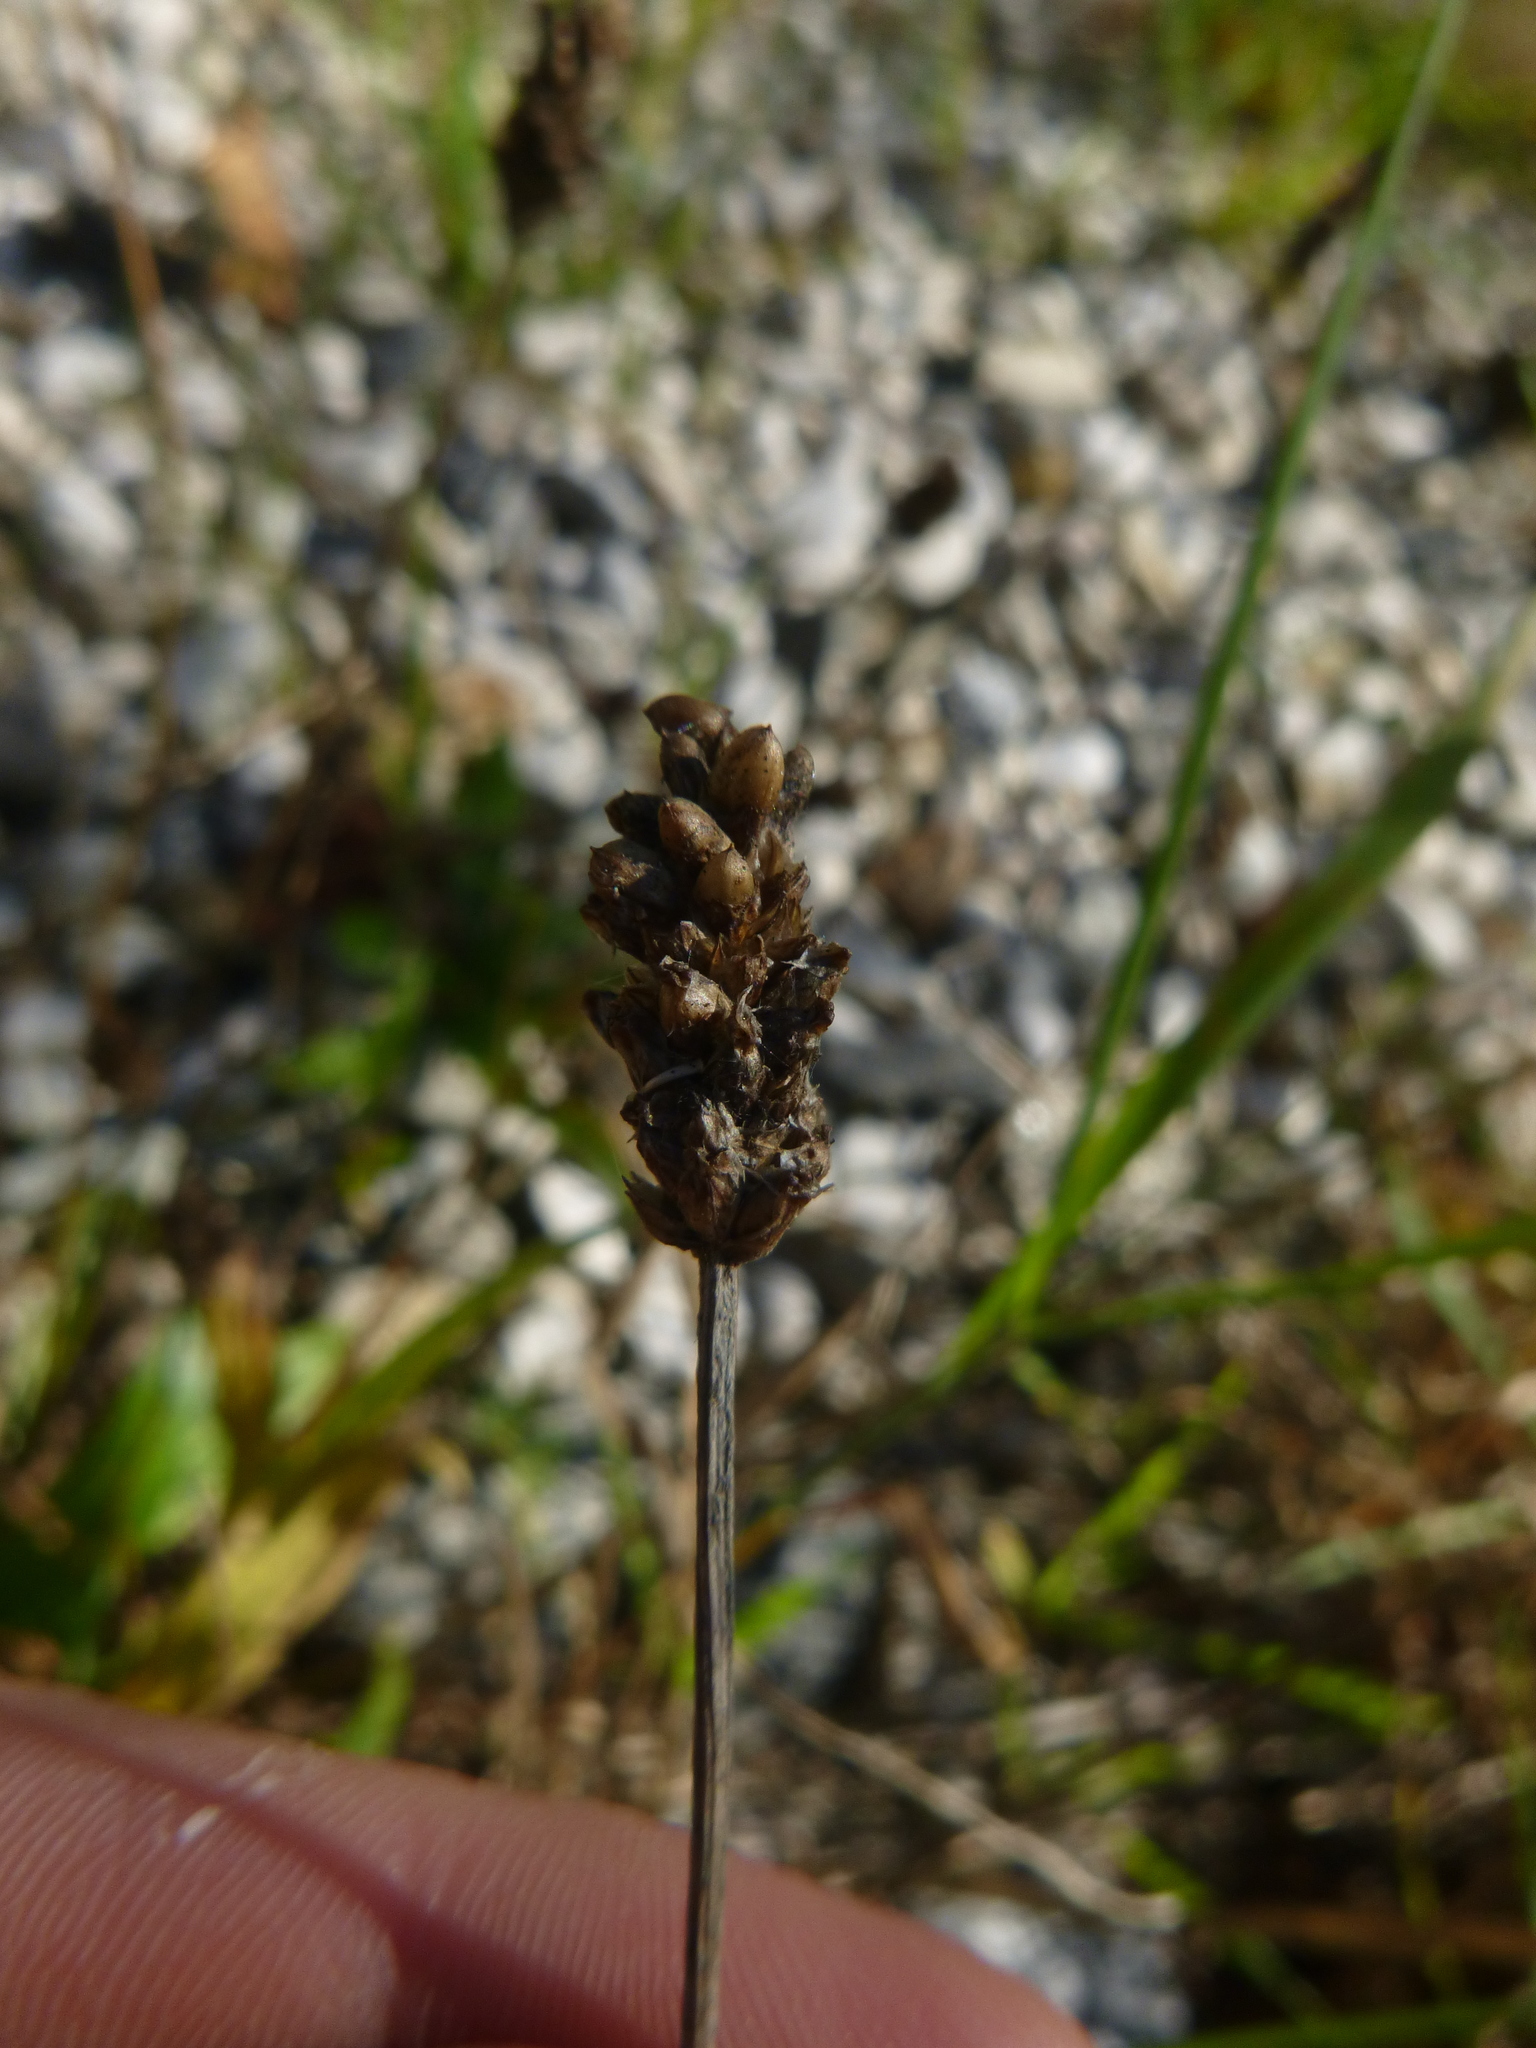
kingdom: Plantae
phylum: Tracheophyta
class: Magnoliopsida
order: Lamiales
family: Plantaginaceae
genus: Plantago
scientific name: Plantago lanceolata
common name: Ribwort plantain
